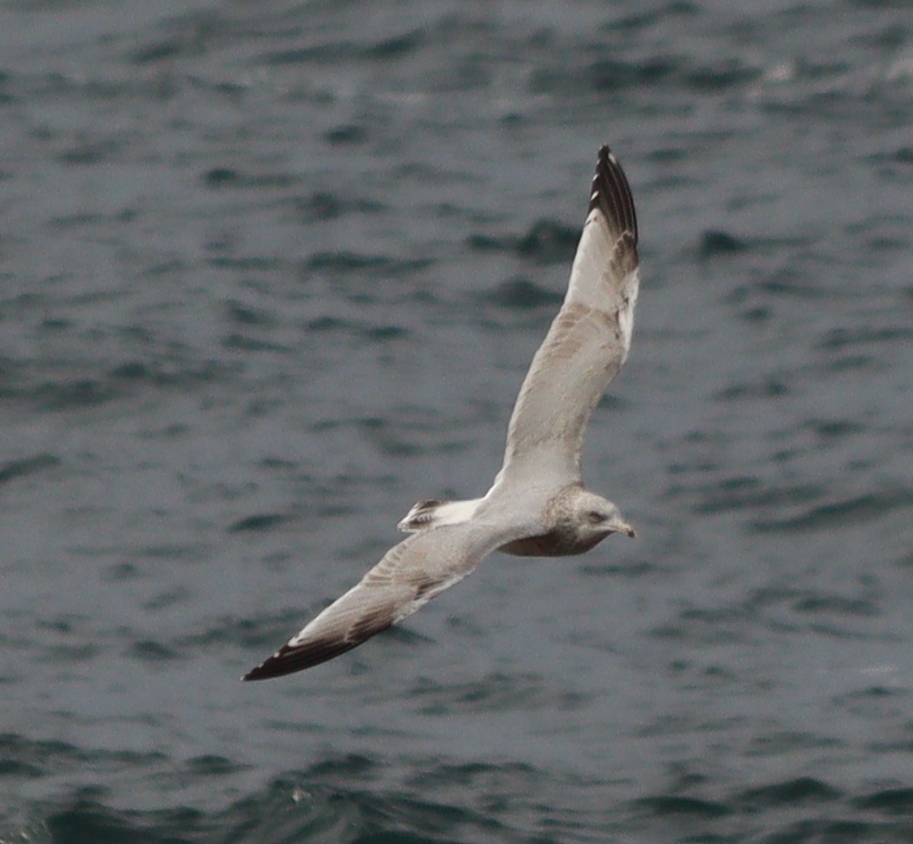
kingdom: Animalia
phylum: Chordata
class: Aves
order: Charadriiformes
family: Laridae
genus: Larus
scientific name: Larus argentatus
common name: Herring gull
